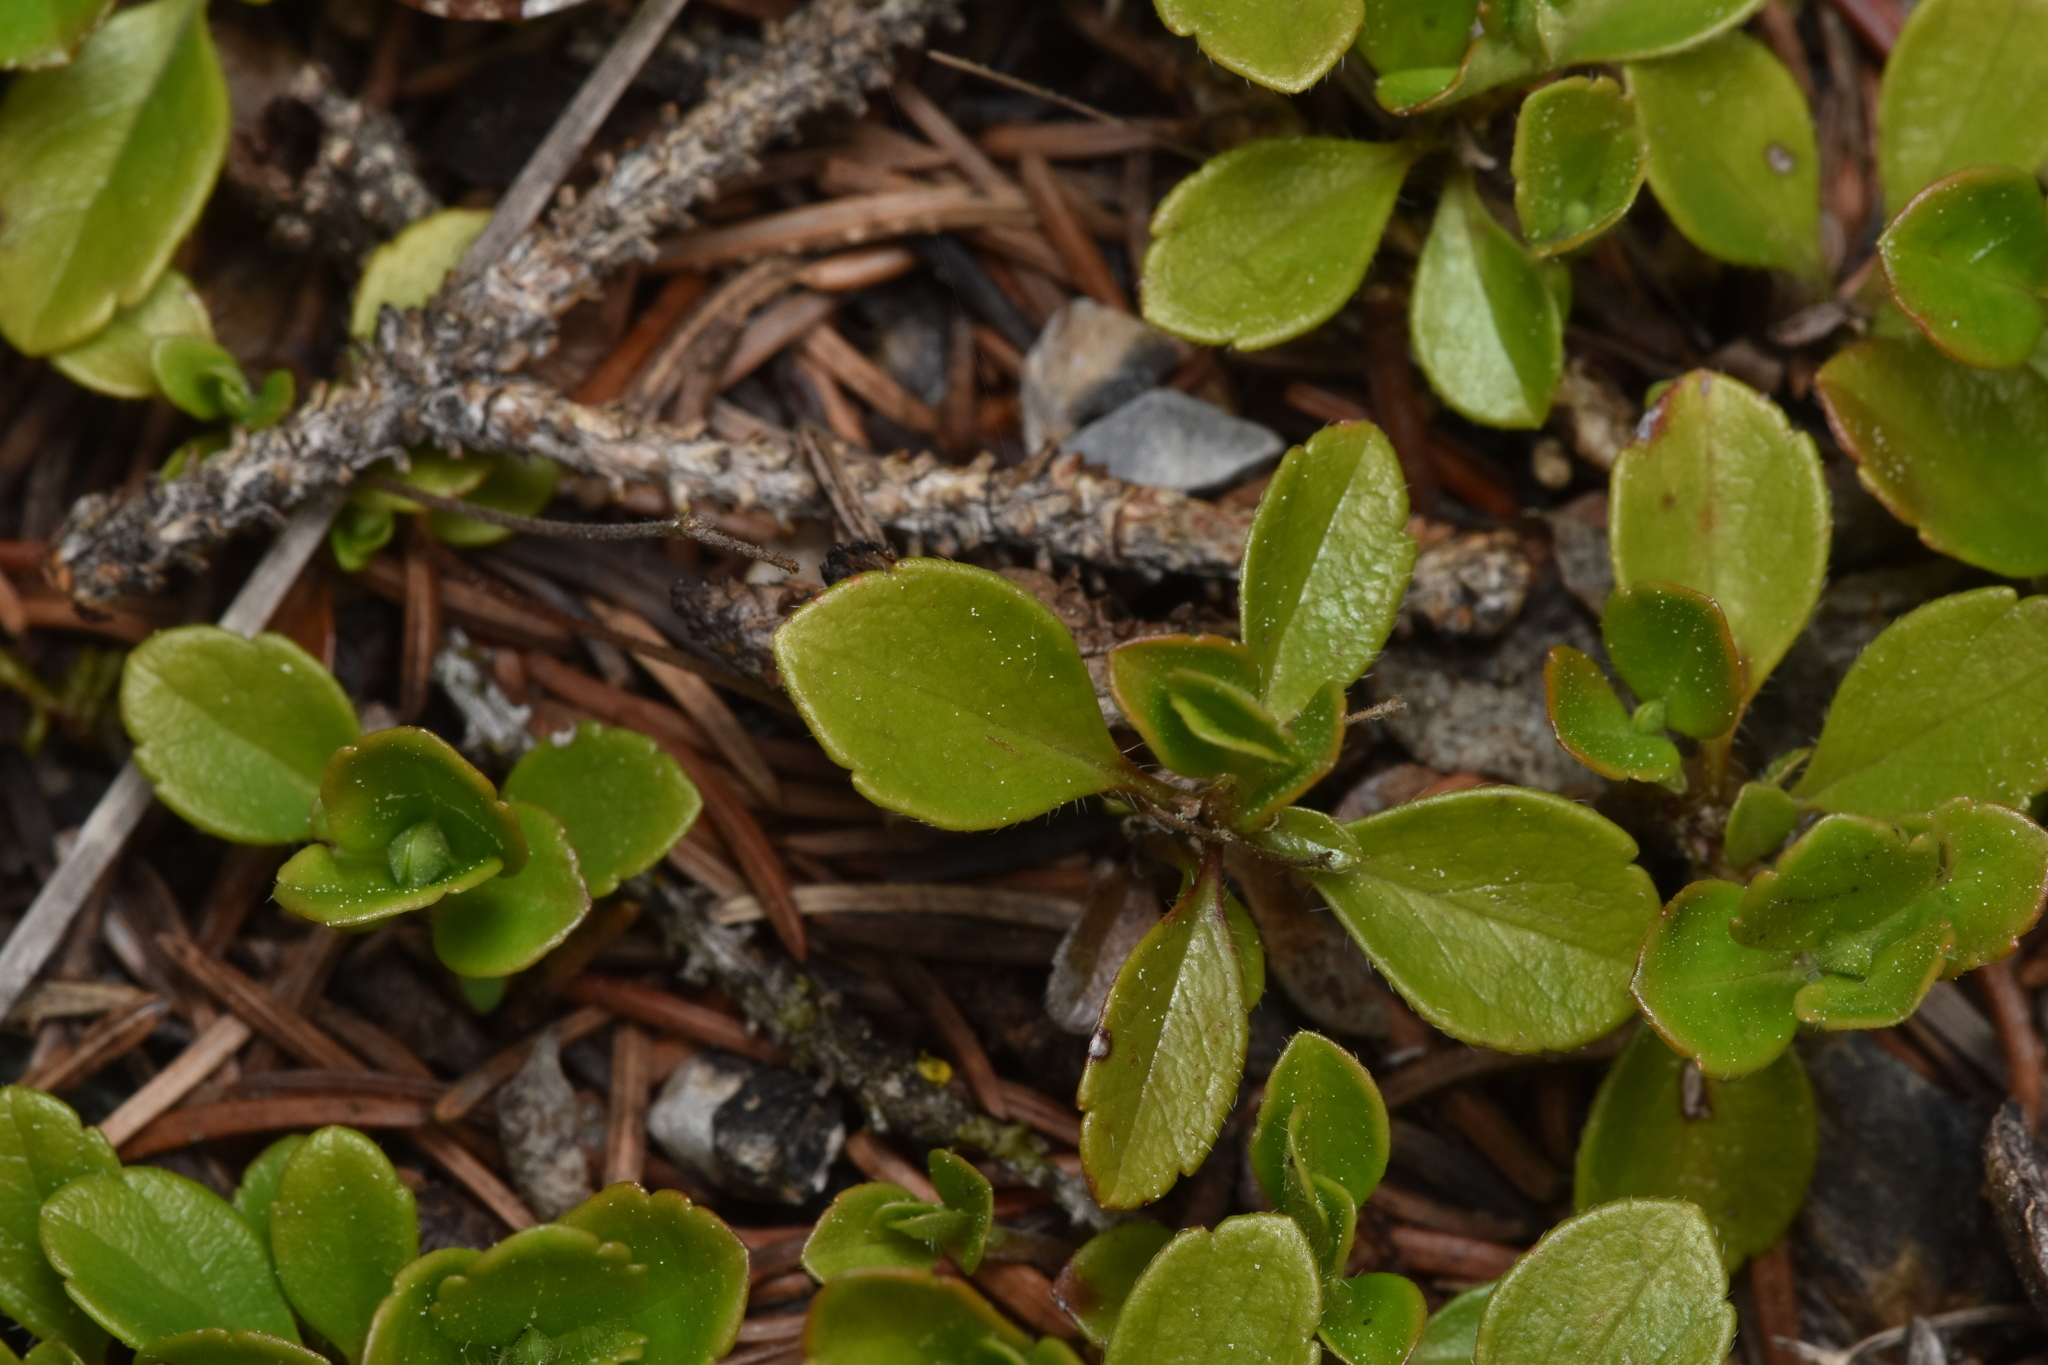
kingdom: Plantae
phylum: Tracheophyta
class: Magnoliopsida
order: Dipsacales
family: Caprifoliaceae
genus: Linnaea
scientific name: Linnaea borealis
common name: Twinflower
